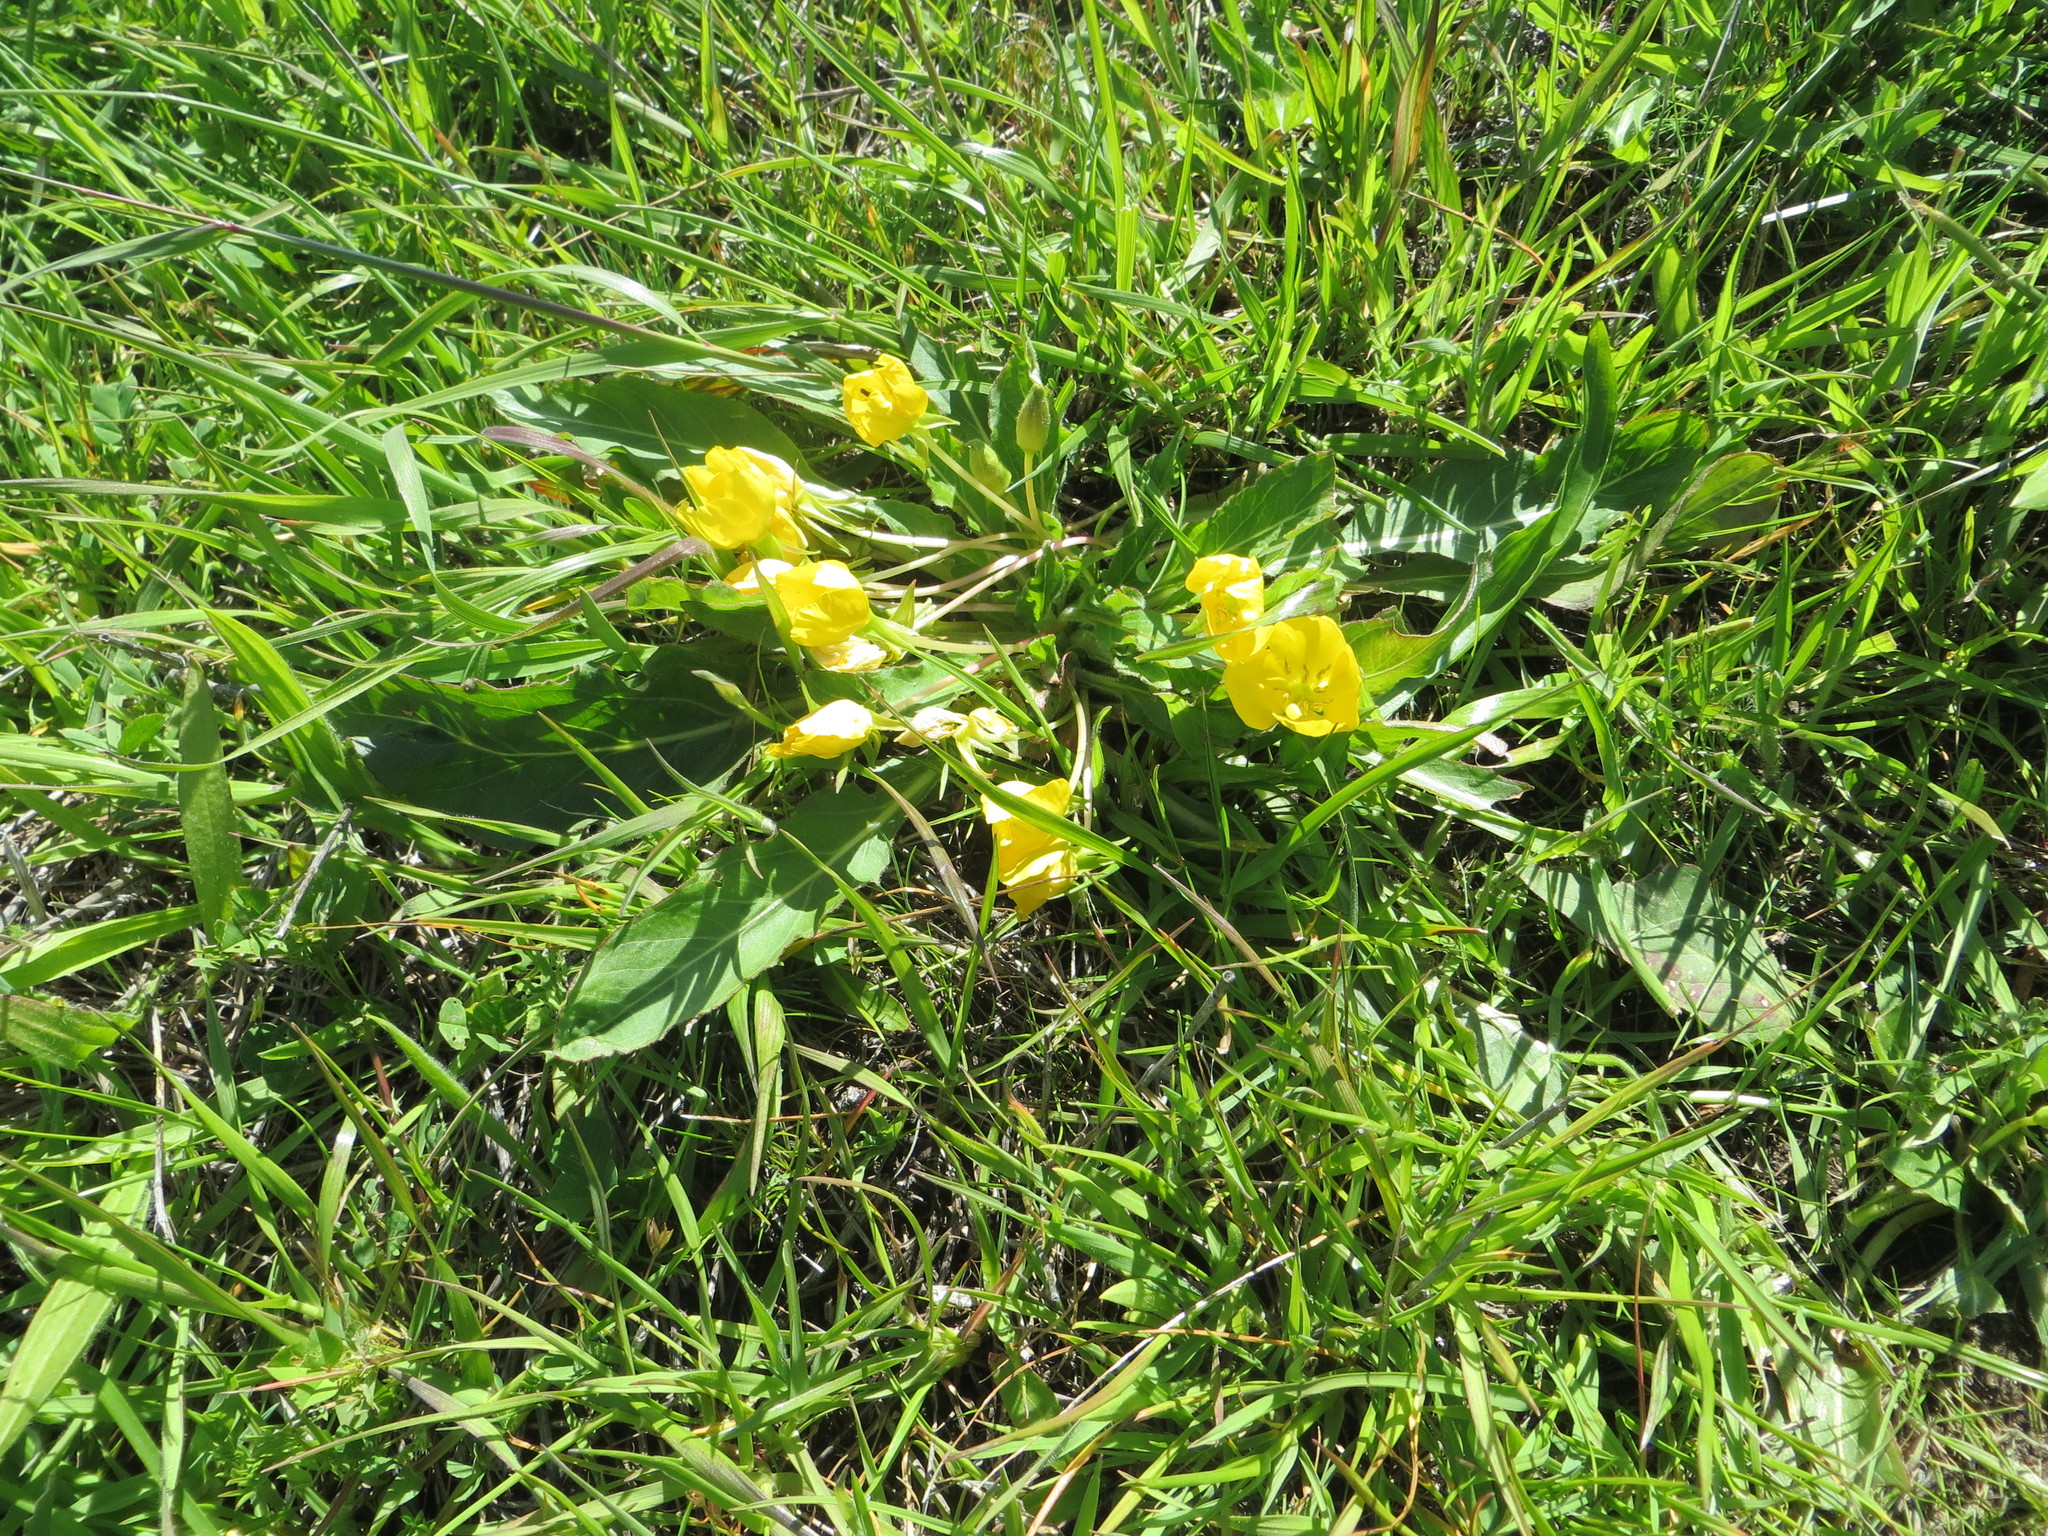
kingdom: Plantae
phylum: Tracheophyta
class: Magnoliopsida
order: Myrtales
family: Onagraceae
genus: Taraxia
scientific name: Taraxia ovata
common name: Goldeneggs
